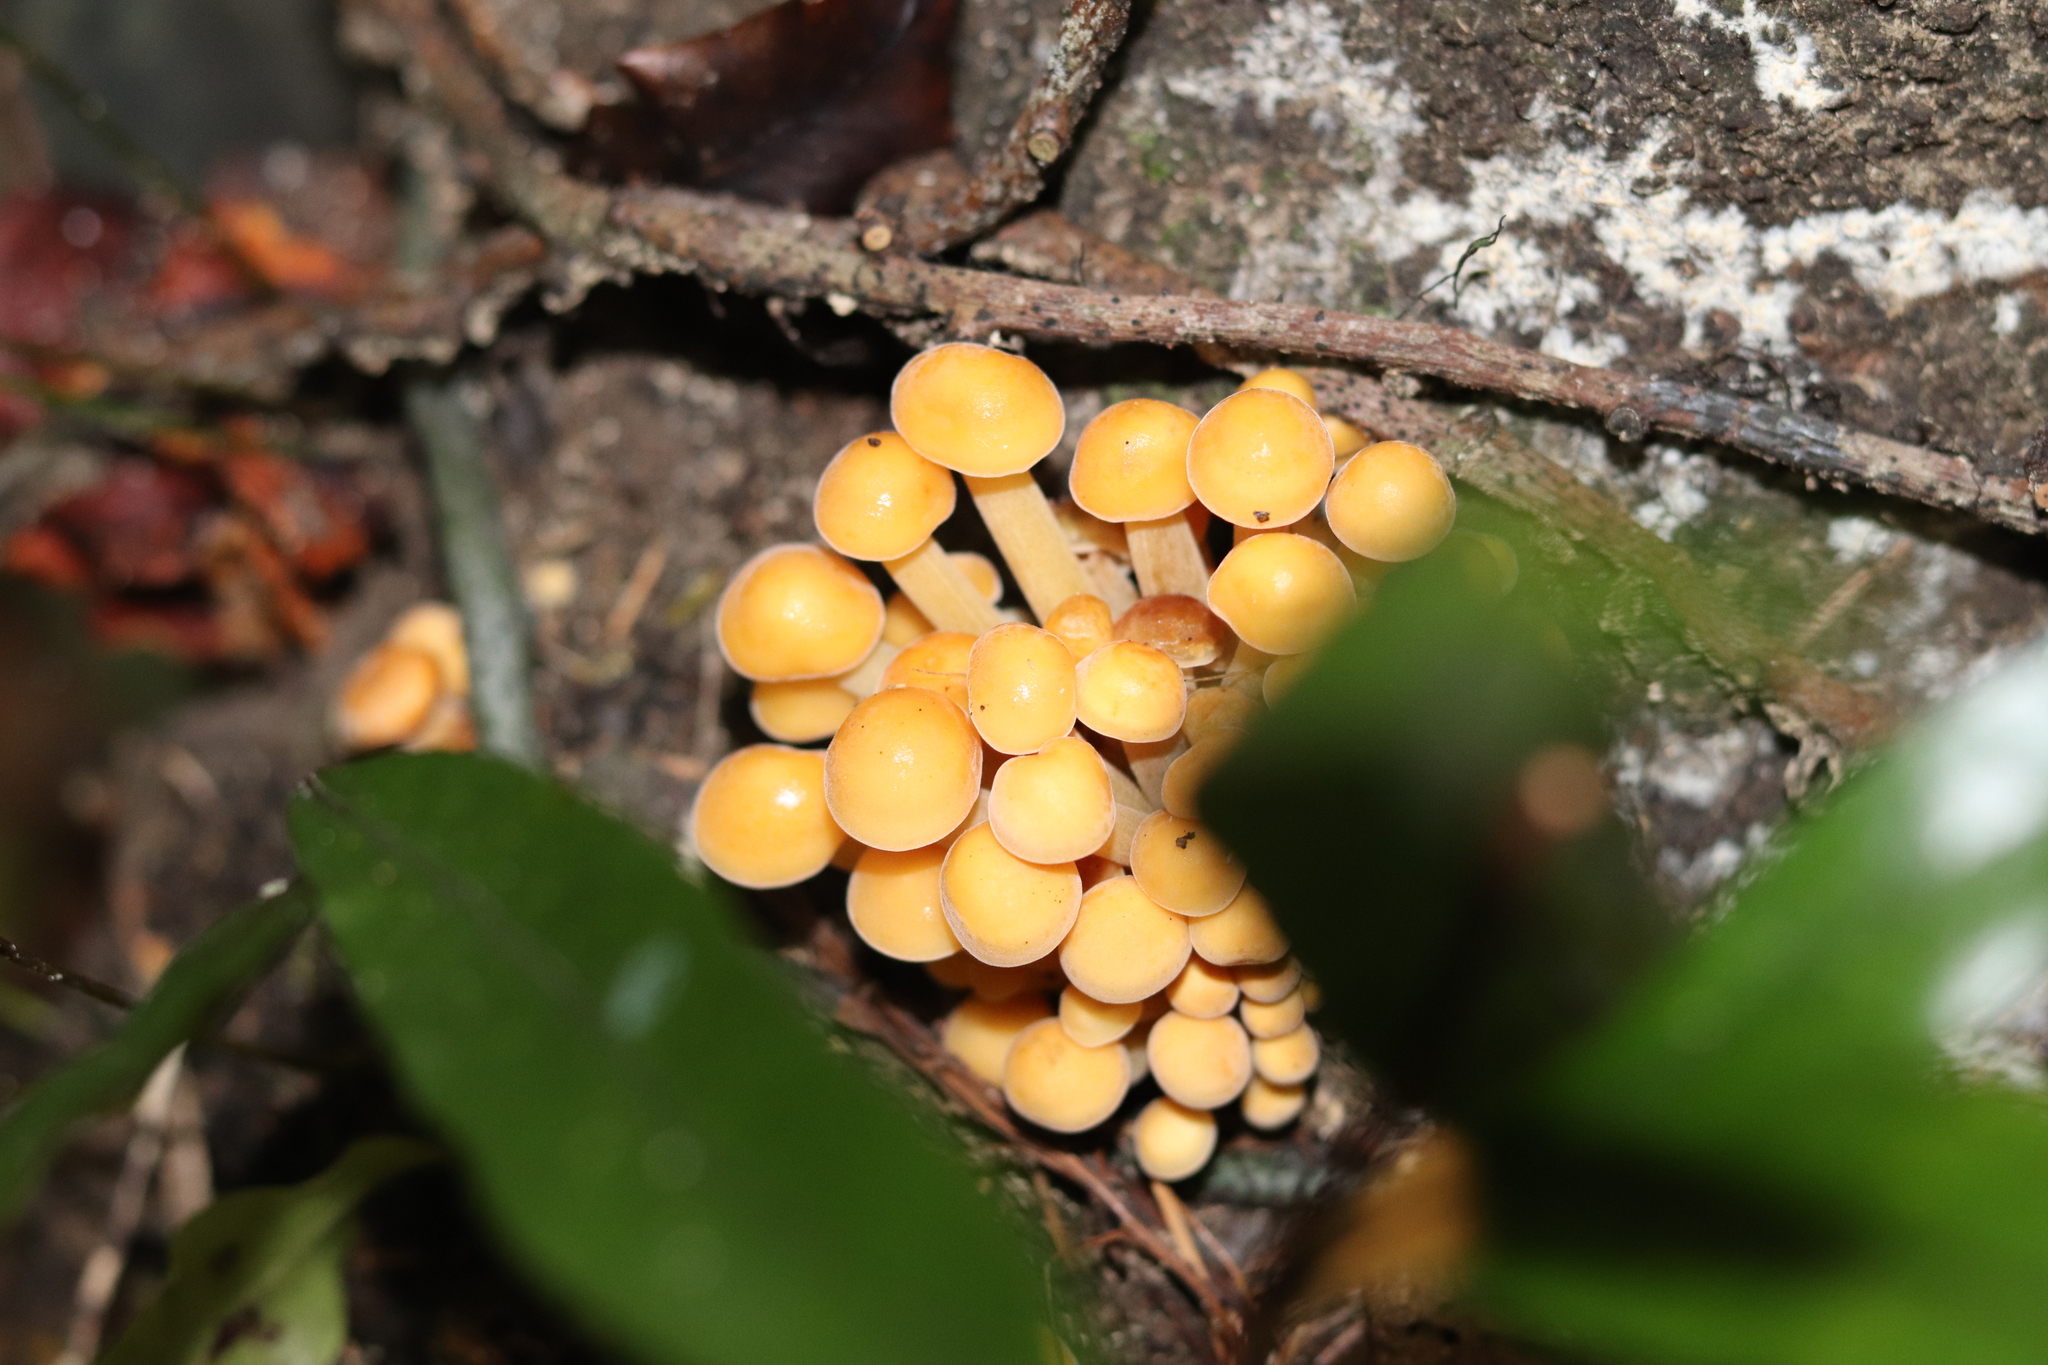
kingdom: Fungi
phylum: Basidiomycota
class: Agaricomycetes
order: Agaricales
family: Physalacriaceae
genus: Flammulina
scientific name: Flammulina velutipes
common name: Velvet shank
